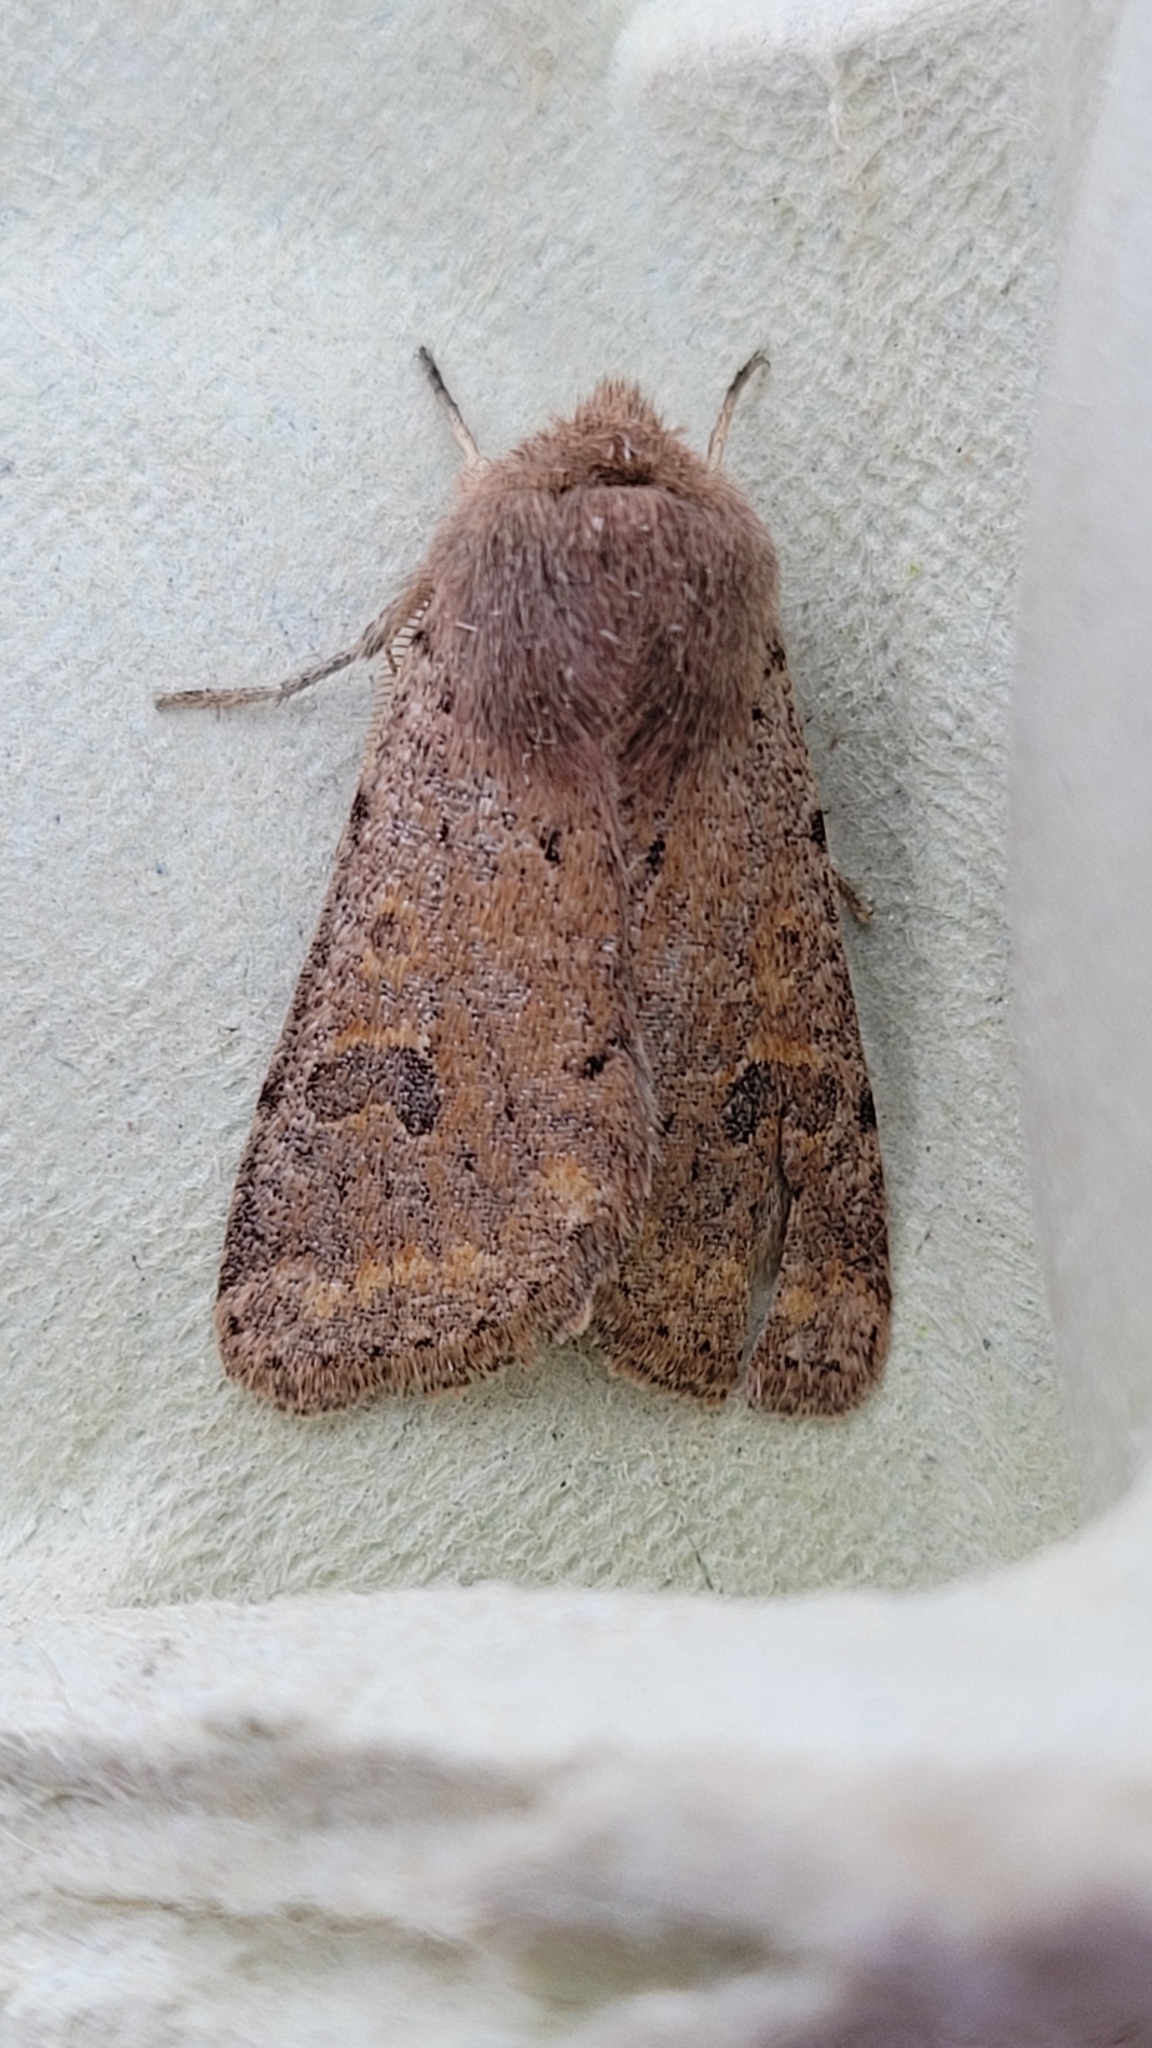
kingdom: Animalia
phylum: Arthropoda
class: Insecta
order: Lepidoptera
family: Noctuidae
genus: Orthosia
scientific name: Orthosia cruda
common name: Small quaker
